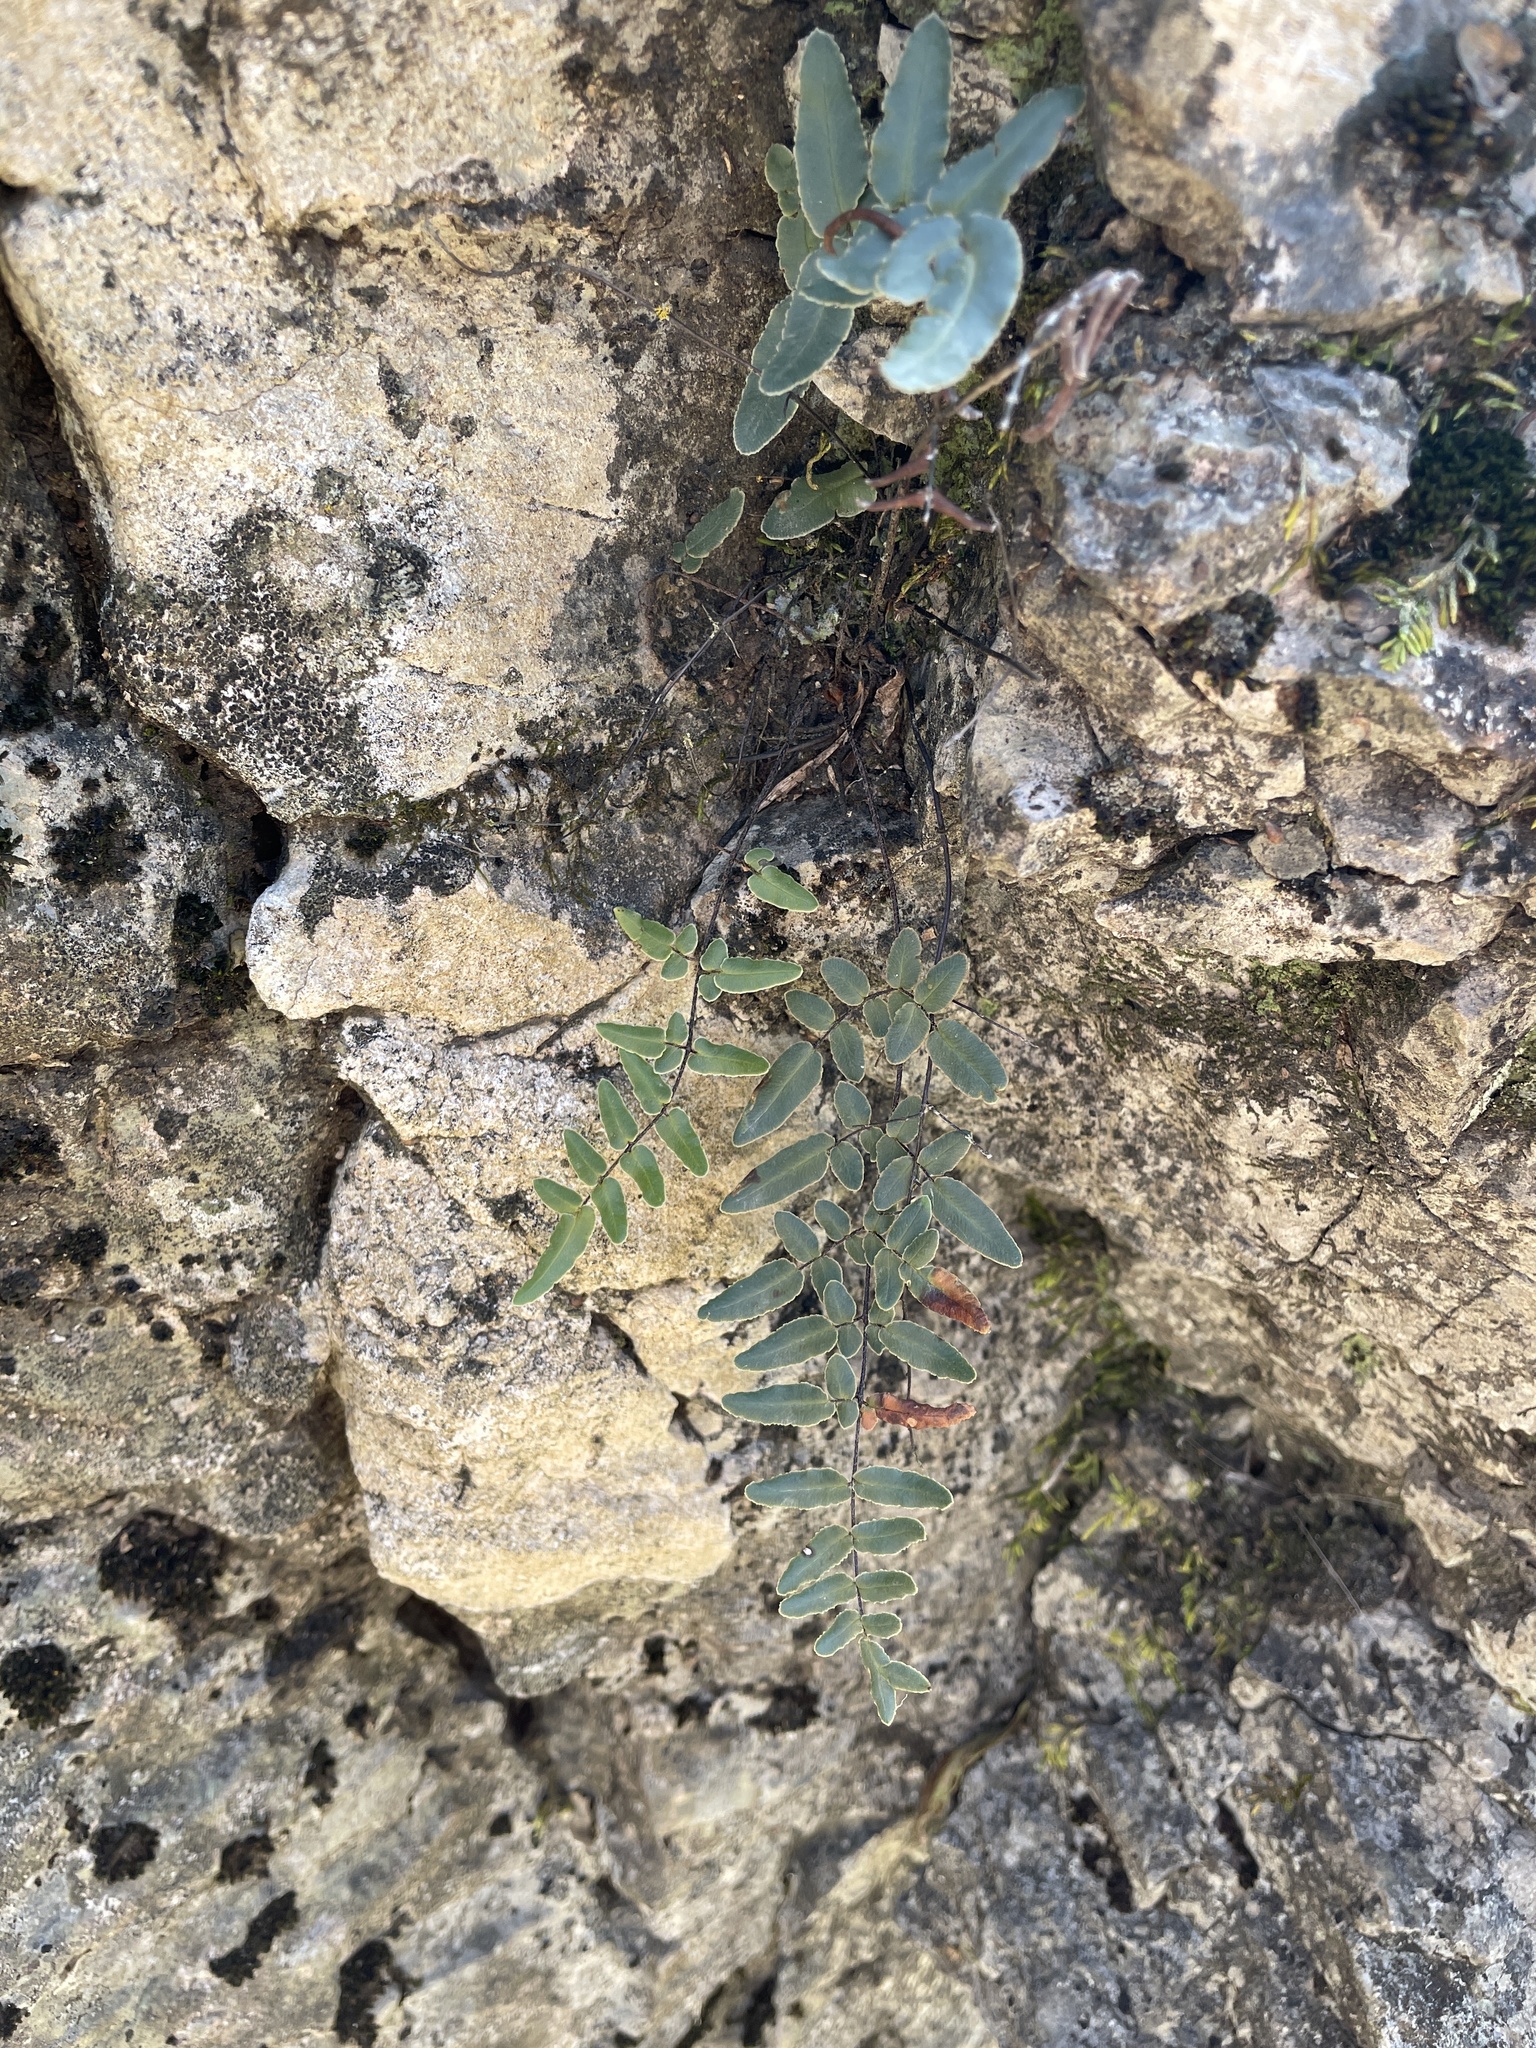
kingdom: Plantae
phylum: Tracheophyta
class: Polypodiopsida
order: Polypodiales
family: Pteridaceae
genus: Pellaea
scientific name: Pellaea atropurpurea
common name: Hairy cliffbrake
